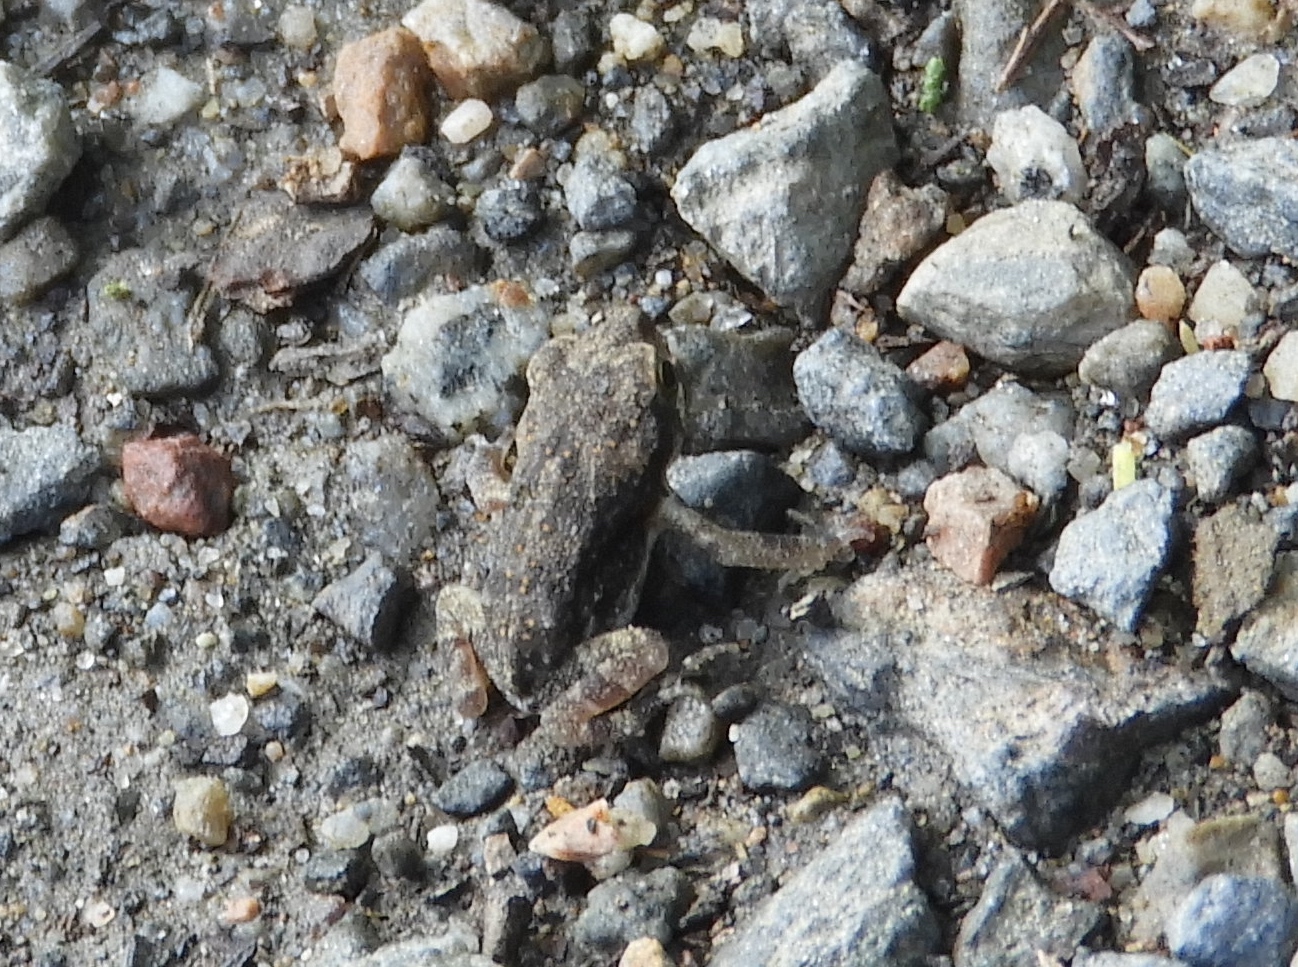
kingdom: Animalia
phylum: Chordata
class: Amphibia
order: Anura
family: Bufonidae
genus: Incilius
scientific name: Incilius mazatlanensis
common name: Sinaloa toad
